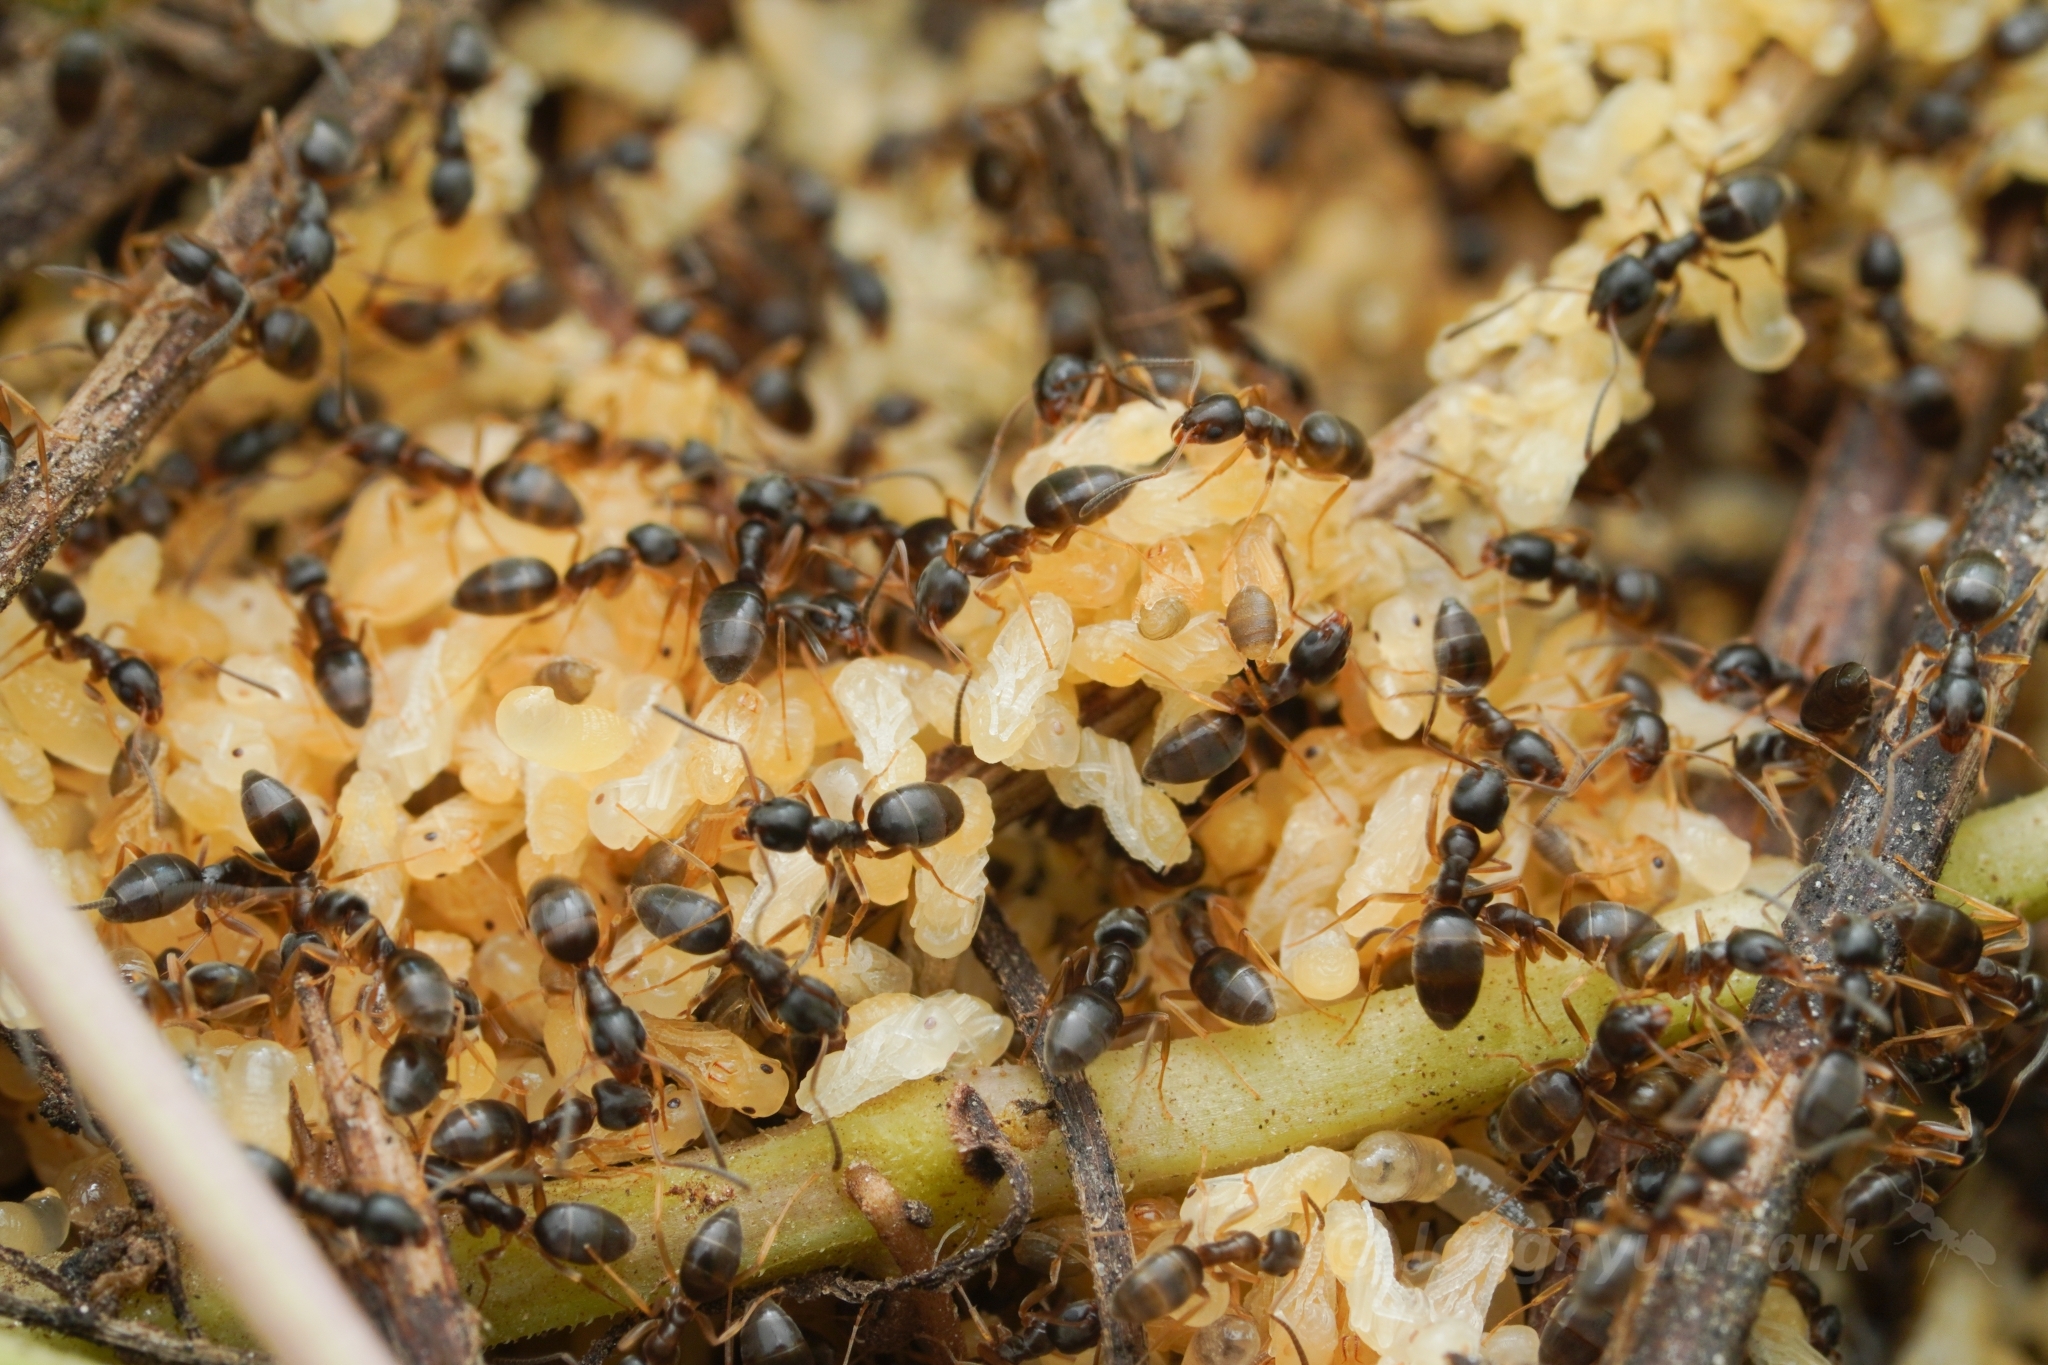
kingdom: Animalia
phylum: Arthropoda
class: Insecta
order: Hymenoptera
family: Formicidae
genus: Tapinoma
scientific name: Tapinoma sessile
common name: Odorous house ant
